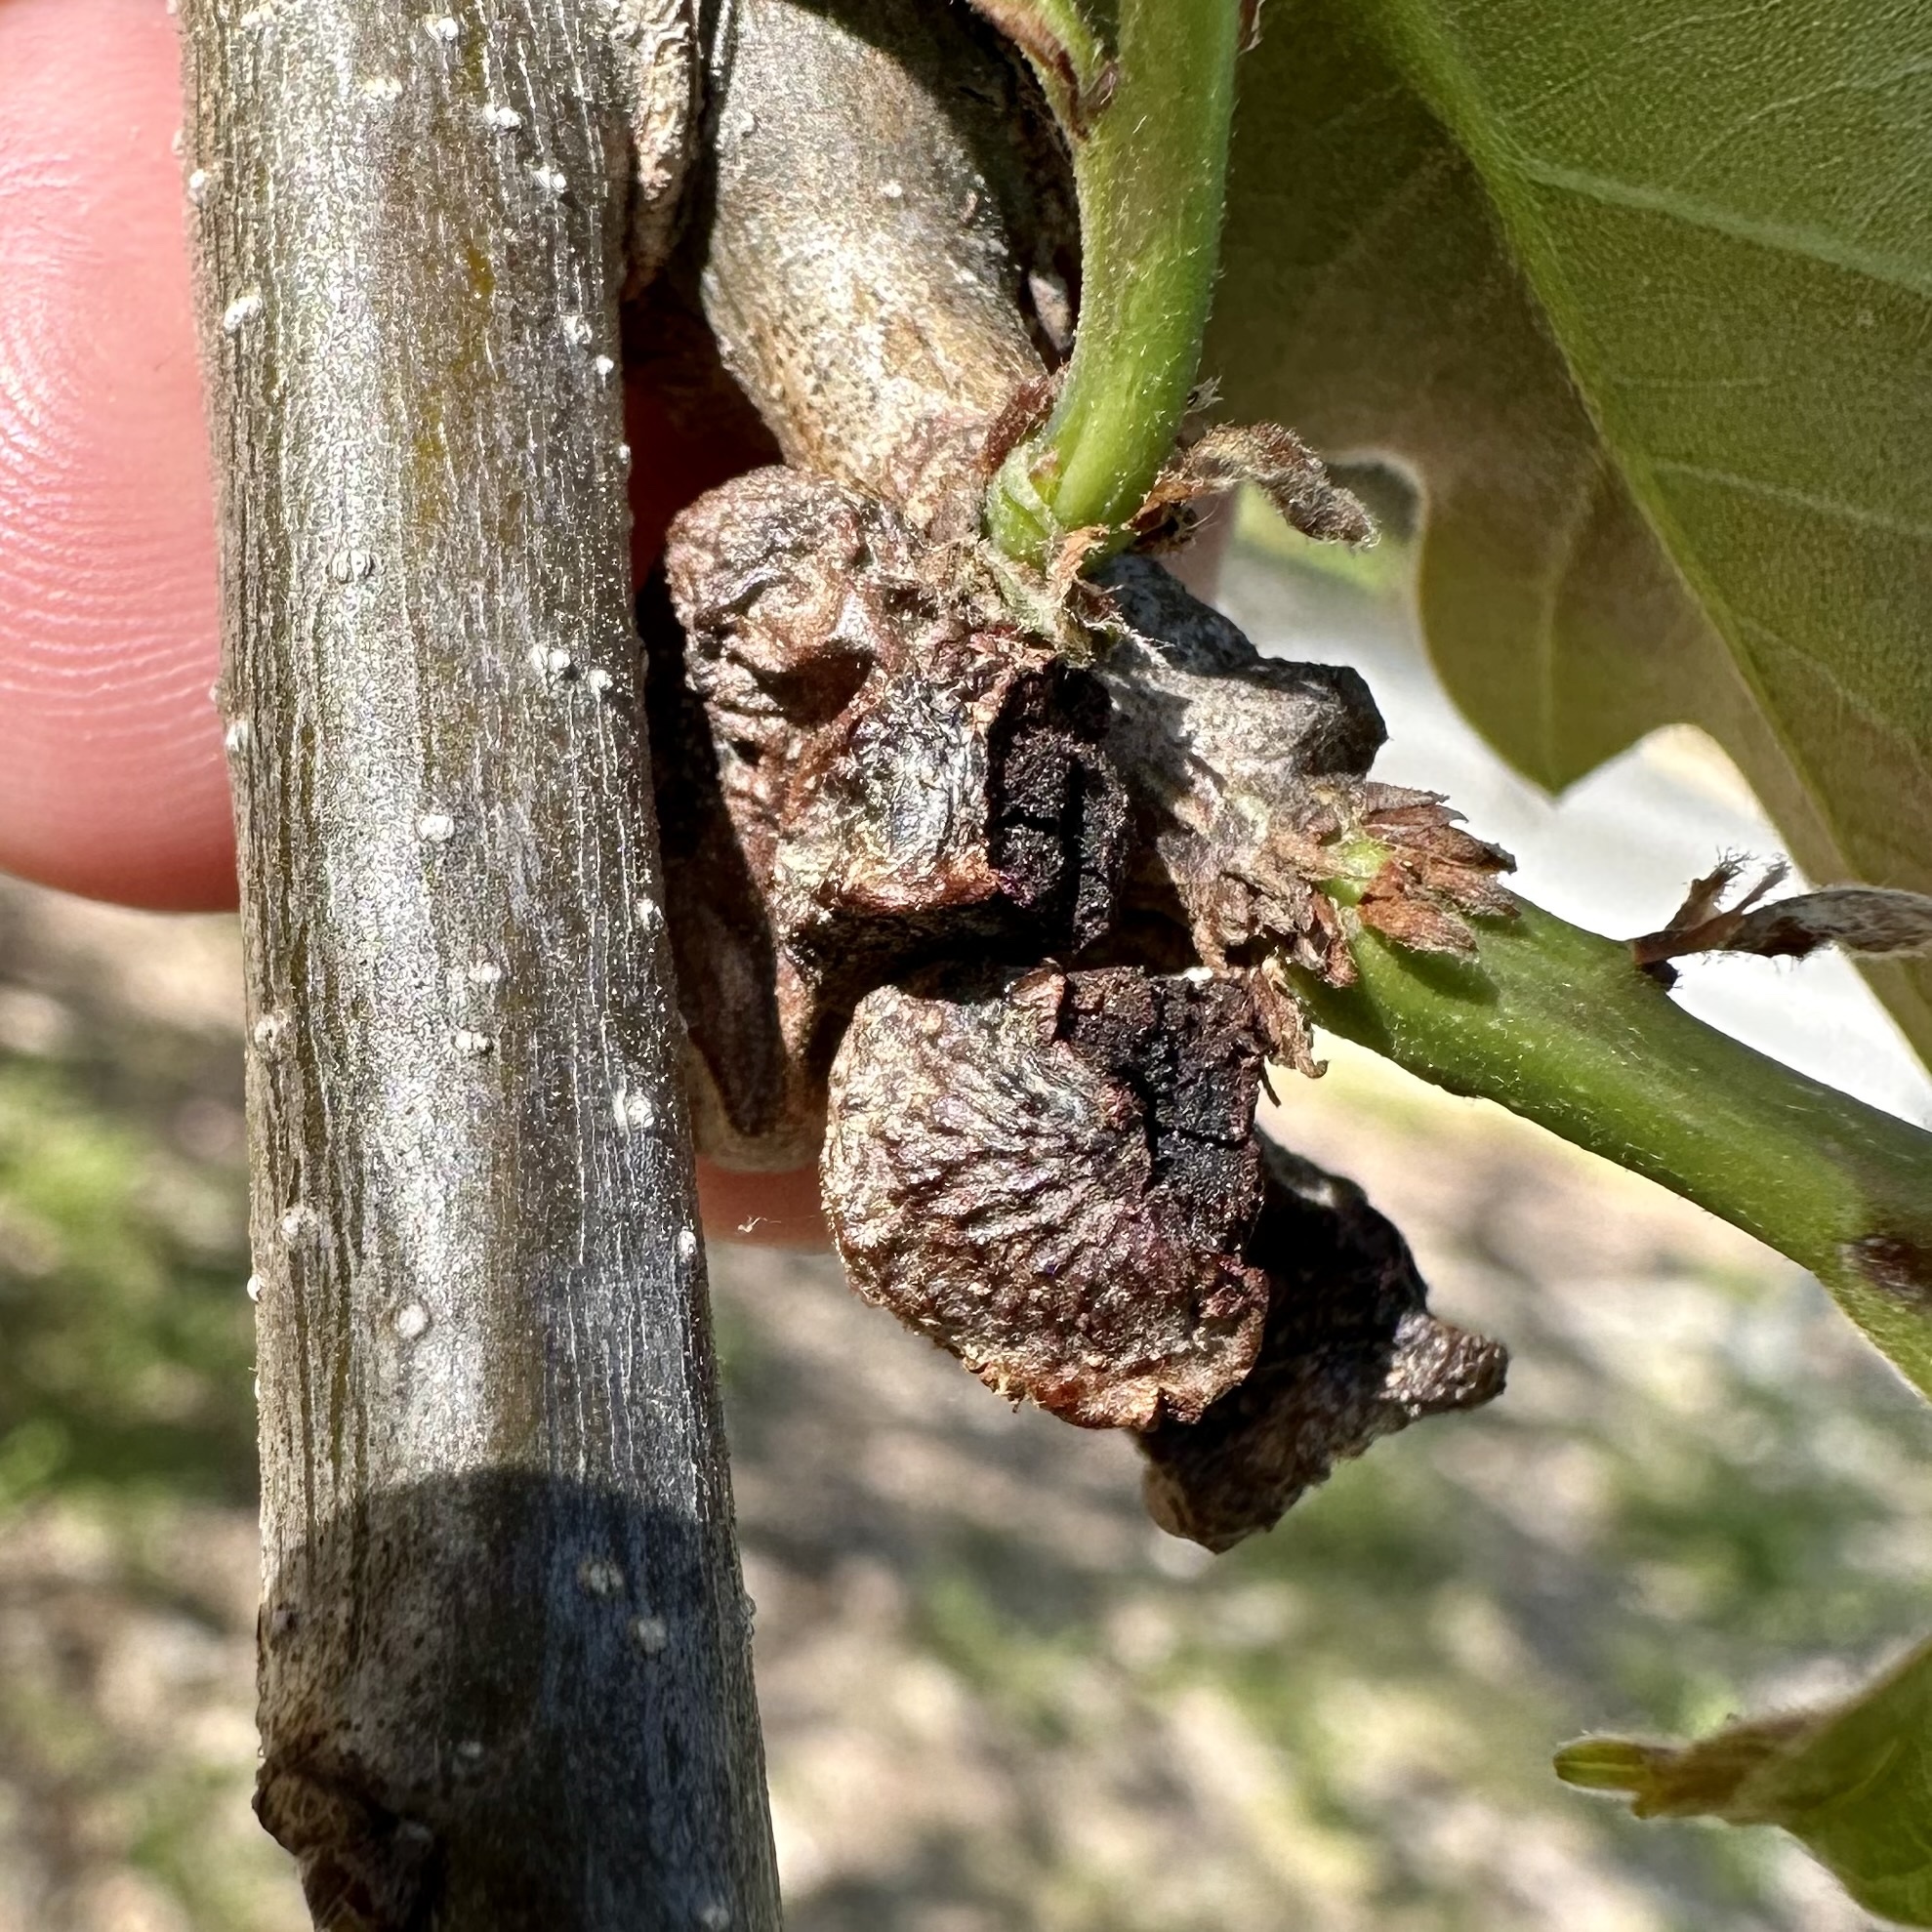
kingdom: Animalia
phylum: Arthropoda
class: Insecta
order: Hymenoptera
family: Cynipidae
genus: Andricus
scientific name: Andricus
